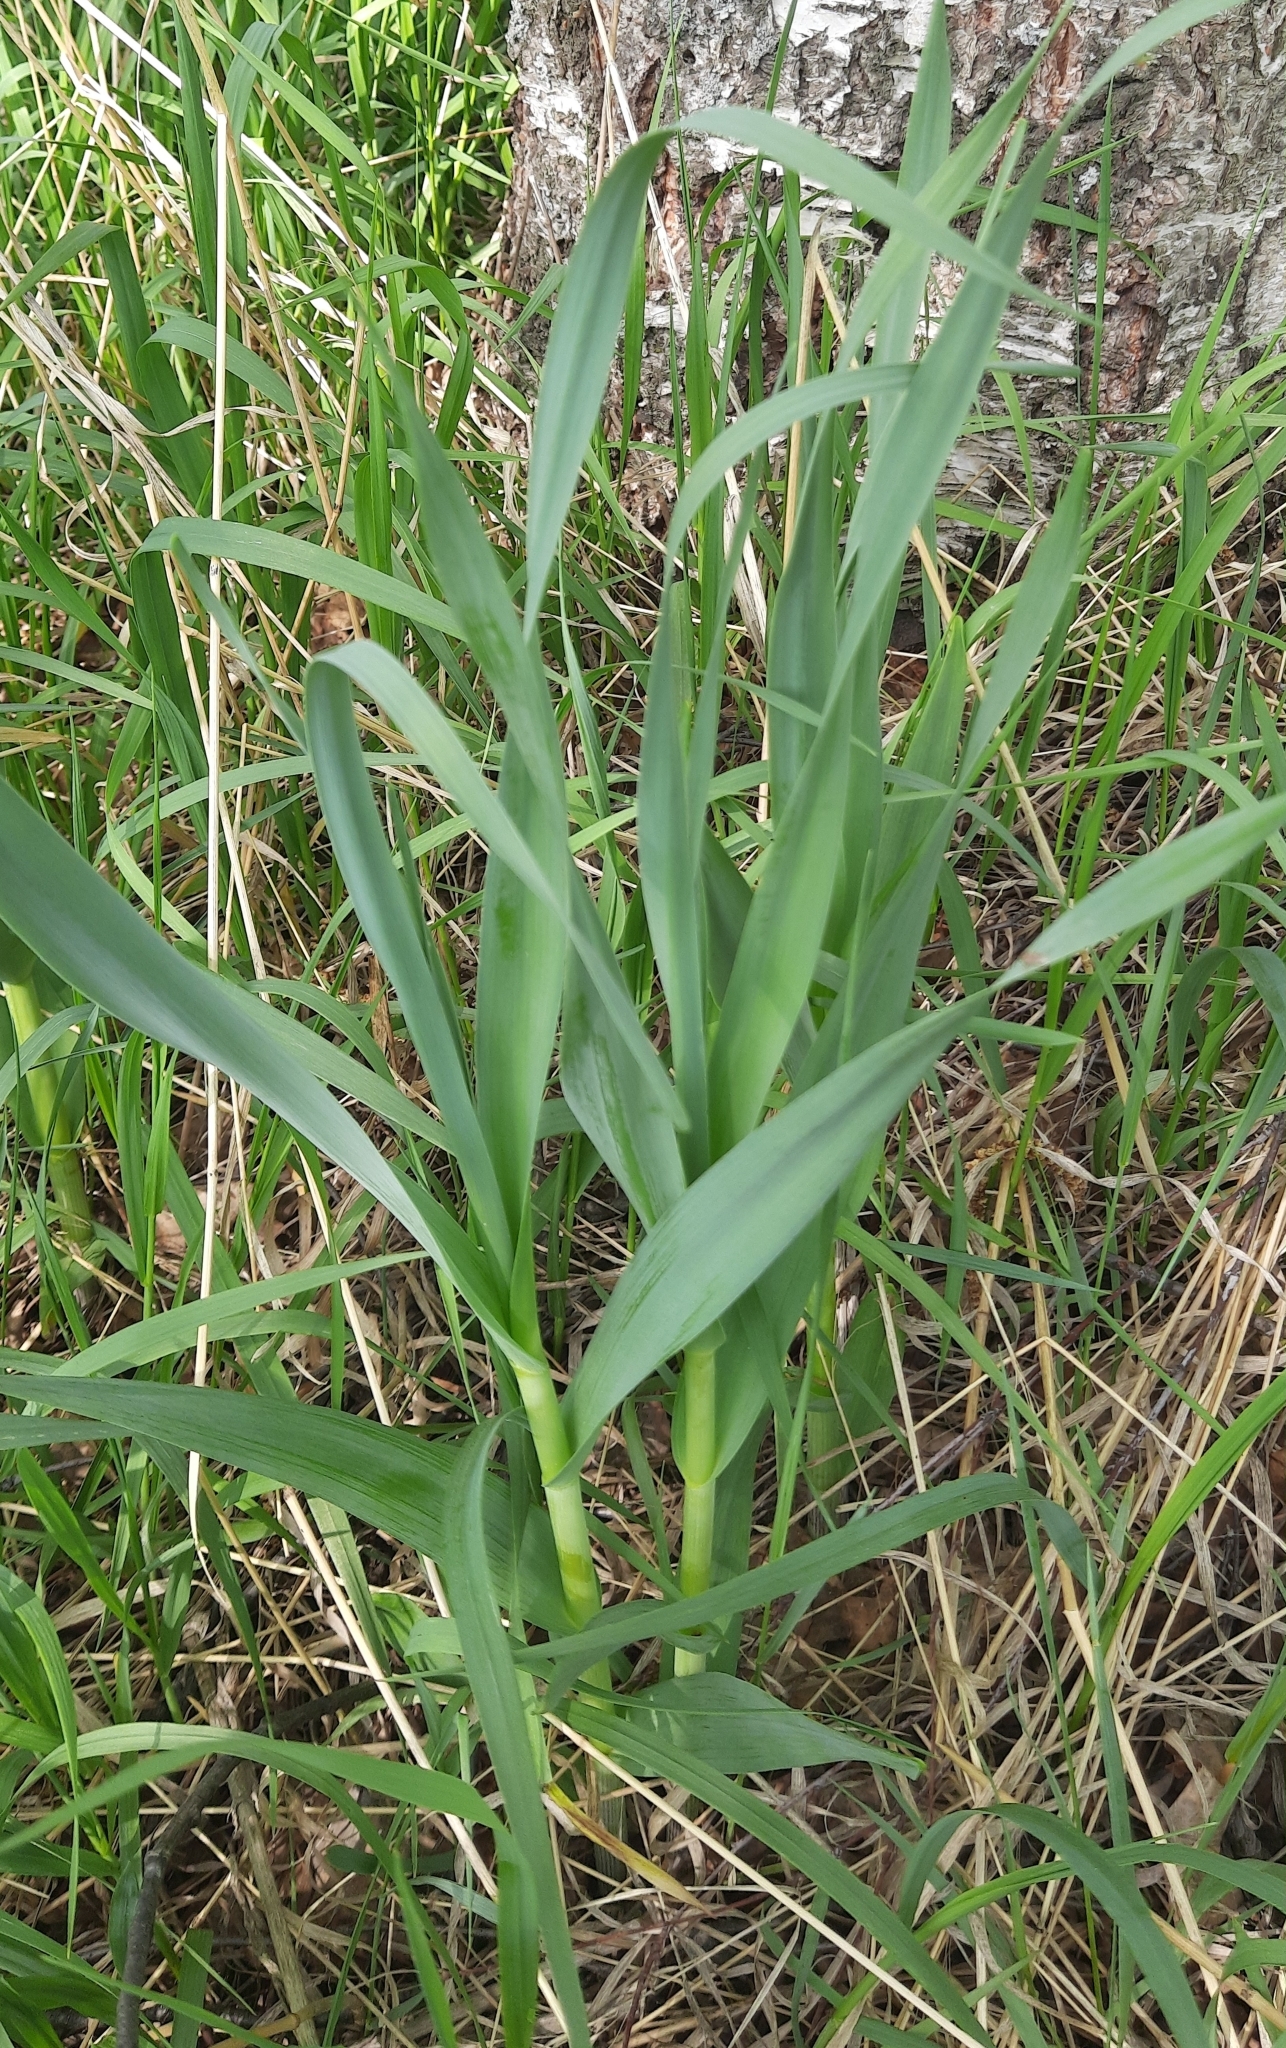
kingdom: Plantae
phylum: Tracheophyta
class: Liliopsida
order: Asparagales
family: Amaryllidaceae
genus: Allium
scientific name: Allium obliquum
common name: Oblique onion
